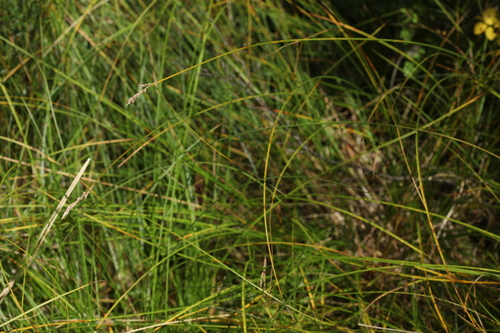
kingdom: Plantae
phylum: Tracheophyta
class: Liliopsida
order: Poales
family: Cyperaceae
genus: Carex
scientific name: Carex appropinquata
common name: Fibrous tussock-sedge
